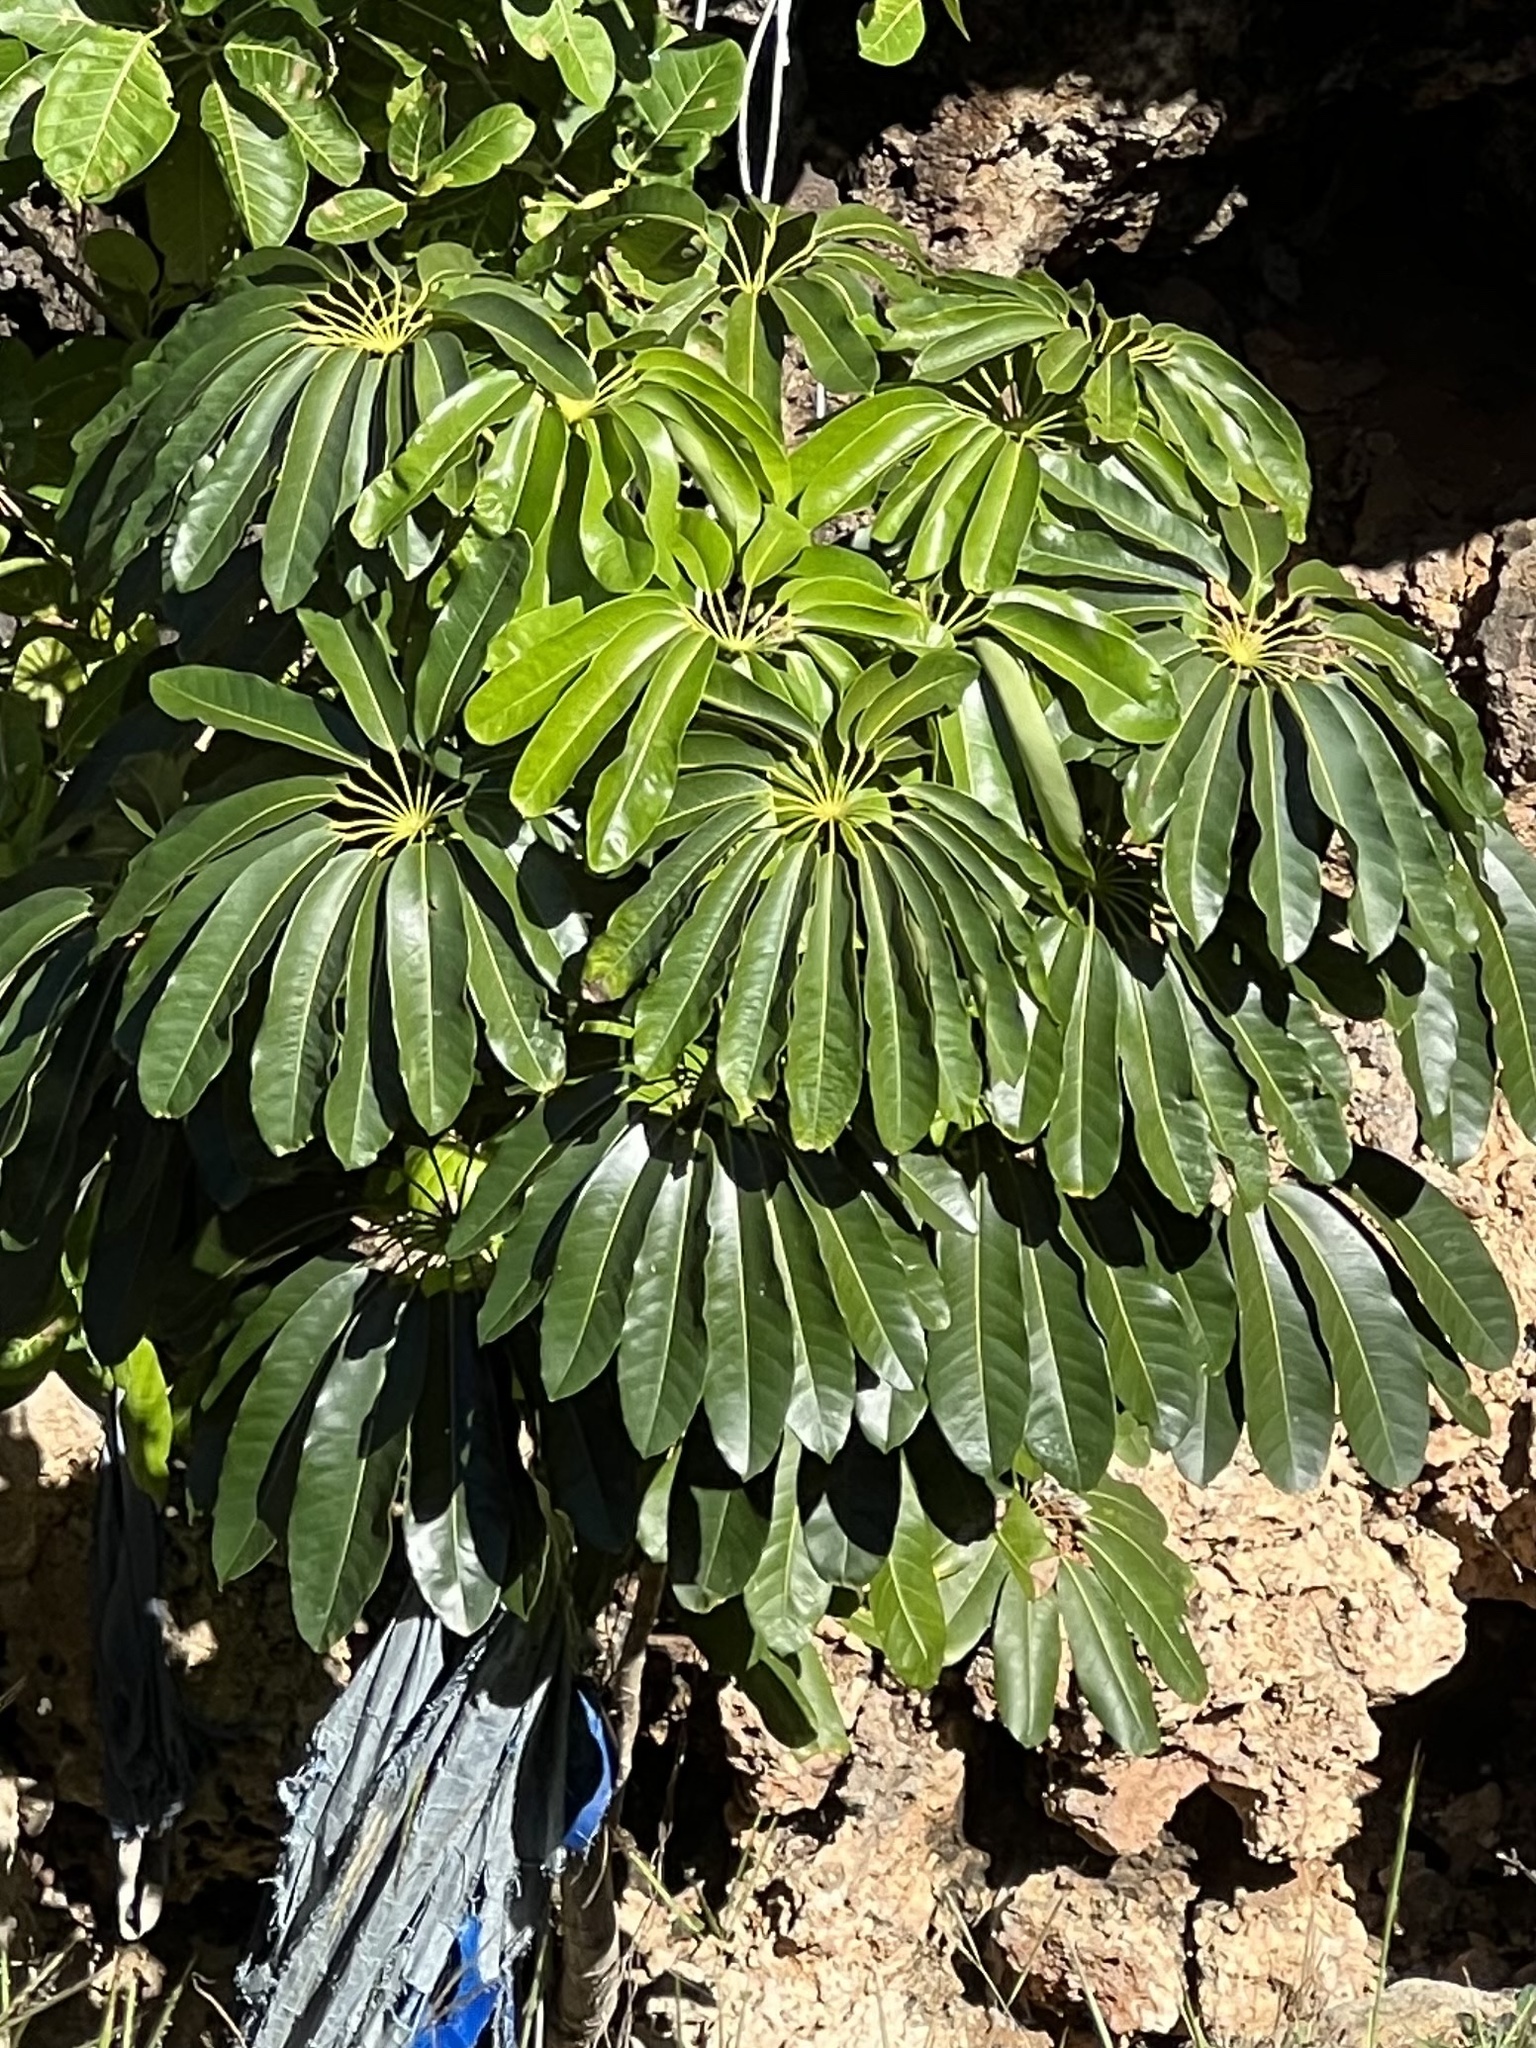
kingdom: Plantae
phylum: Tracheophyta
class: Magnoliopsida
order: Apiales
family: Araliaceae
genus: Heptapleurum
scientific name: Heptapleurum actinophyllum
